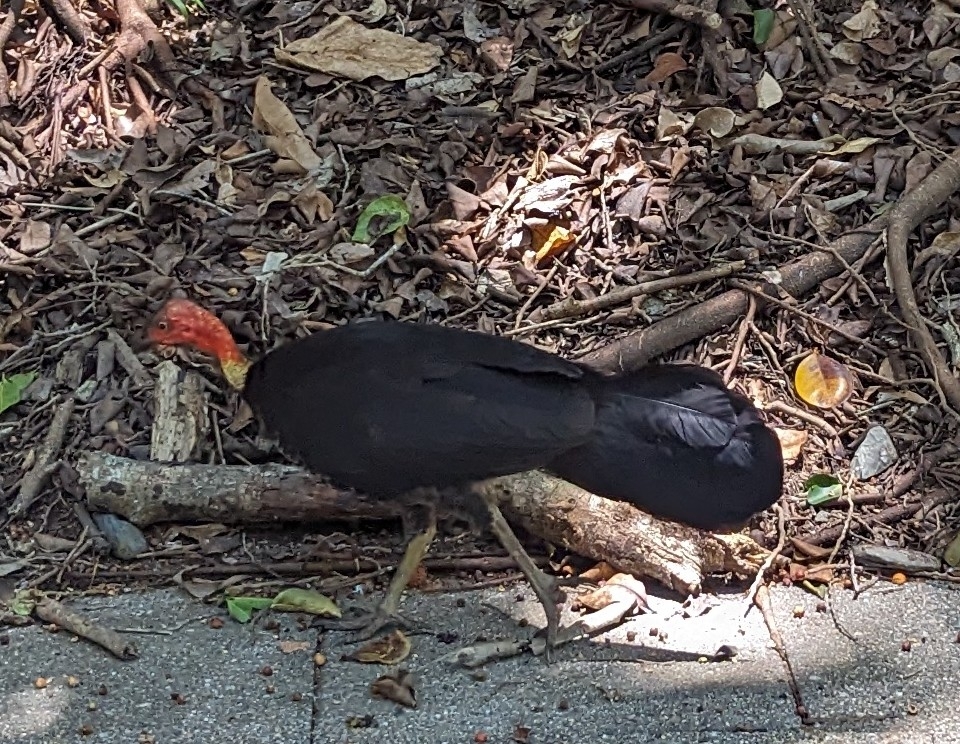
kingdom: Animalia
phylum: Chordata
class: Aves
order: Galliformes
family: Megapodiidae
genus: Alectura
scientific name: Alectura lathami
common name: Australian brushturkey
